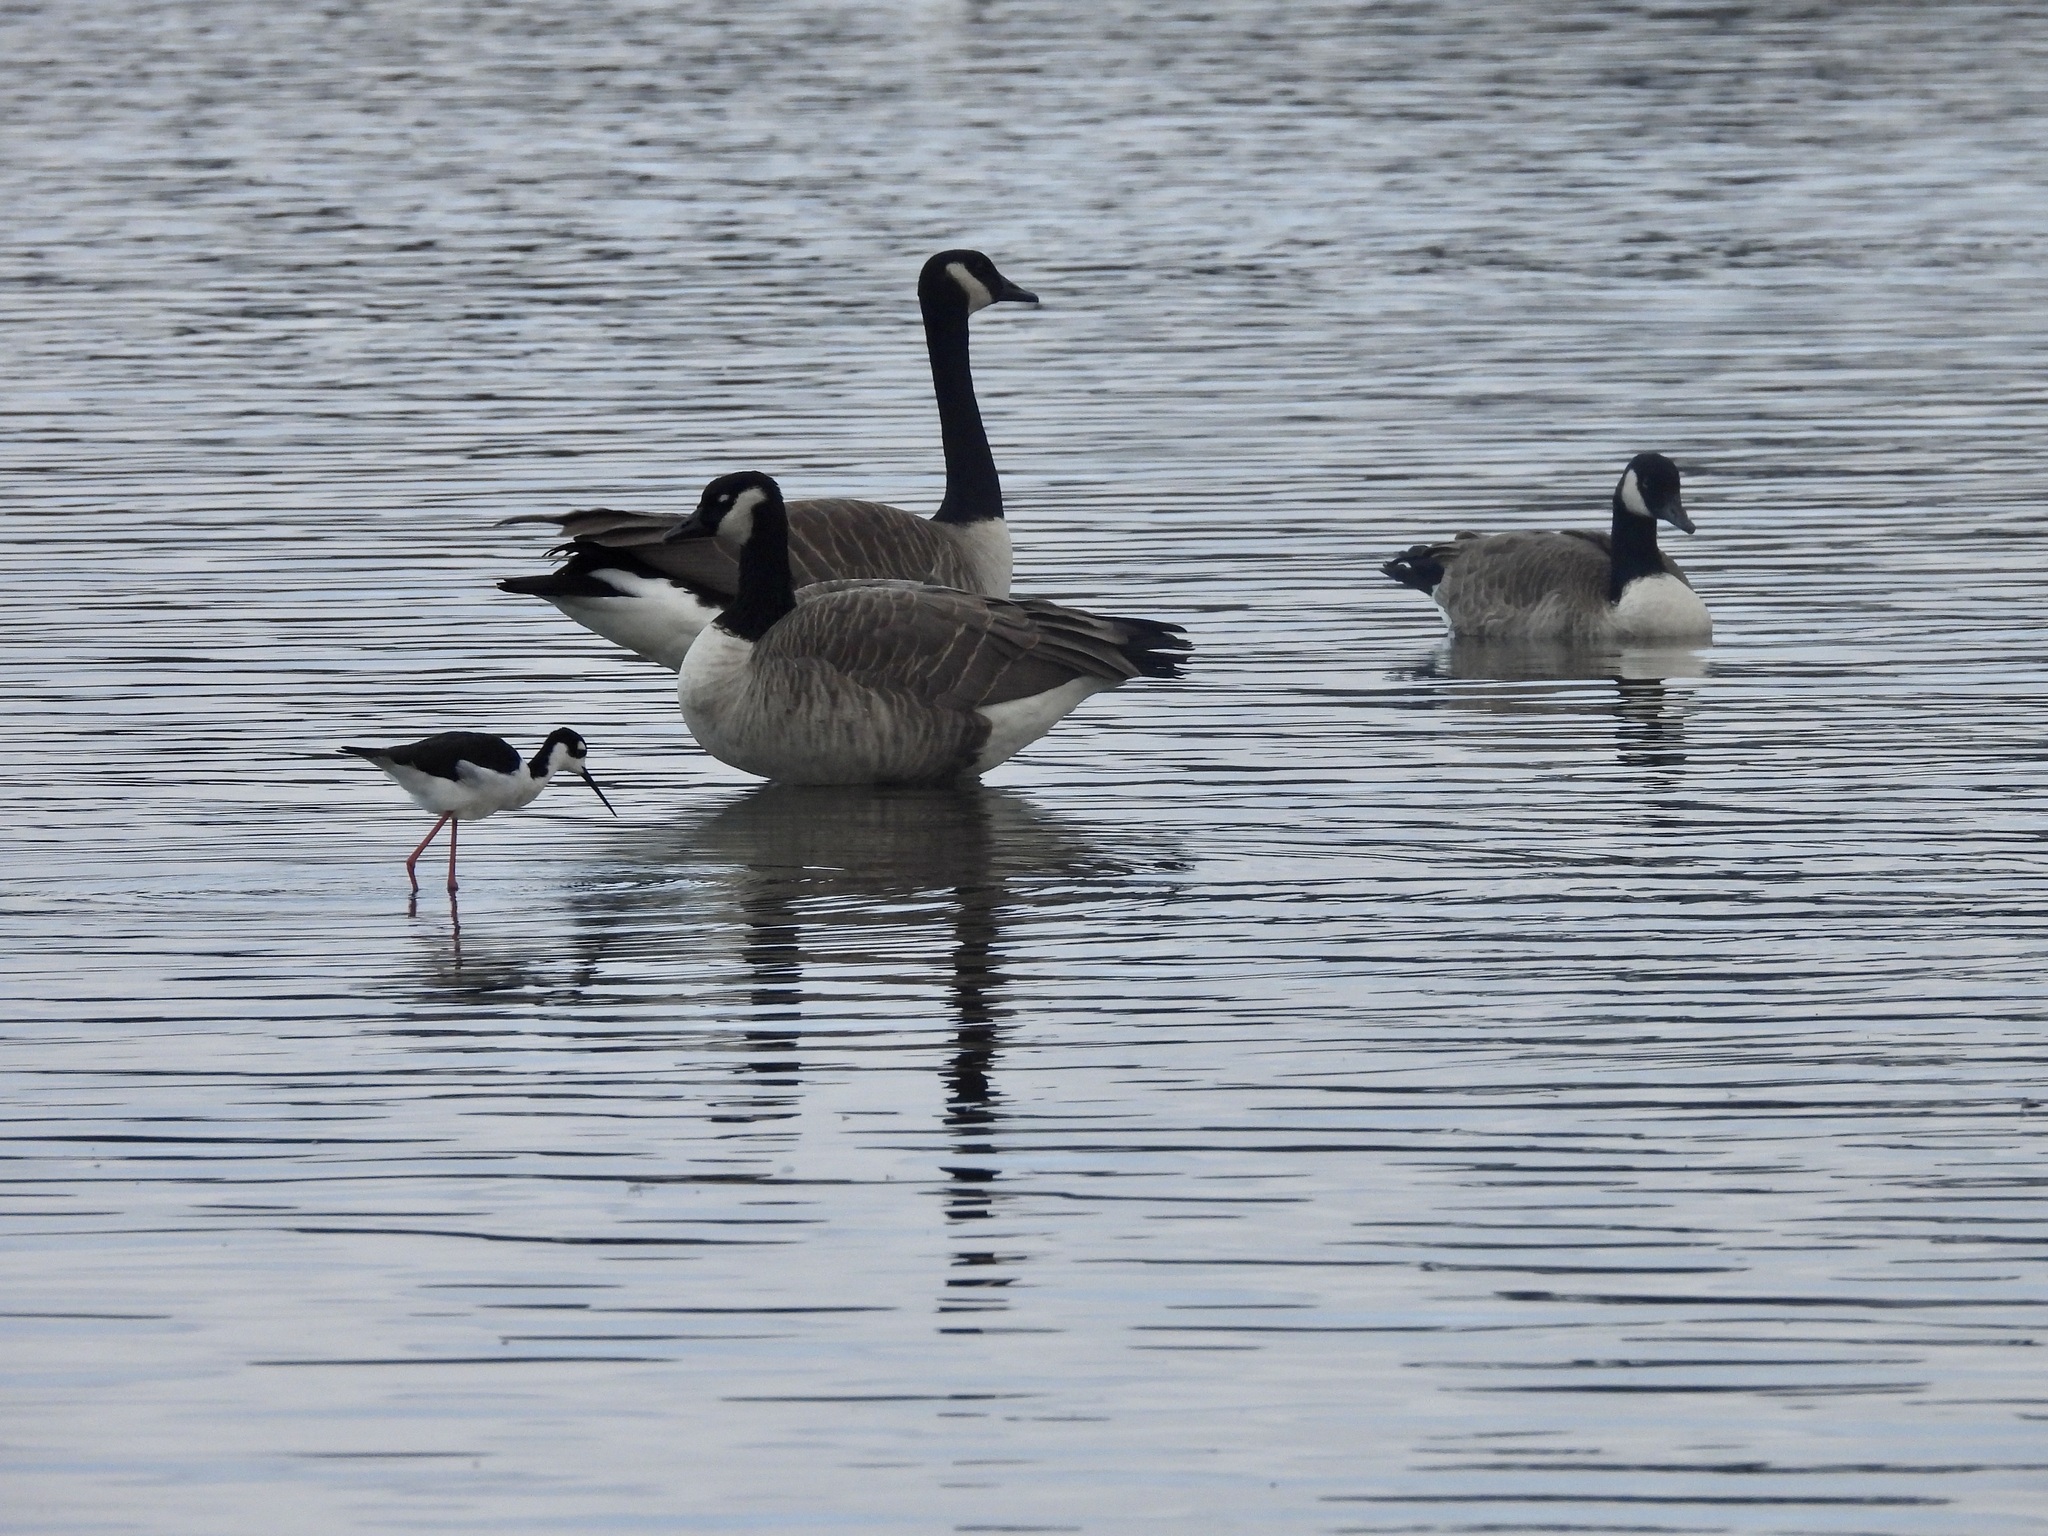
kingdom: Animalia
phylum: Chordata
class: Aves
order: Anseriformes
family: Anatidae
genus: Branta
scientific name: Branta canadensis
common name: Canada goose
